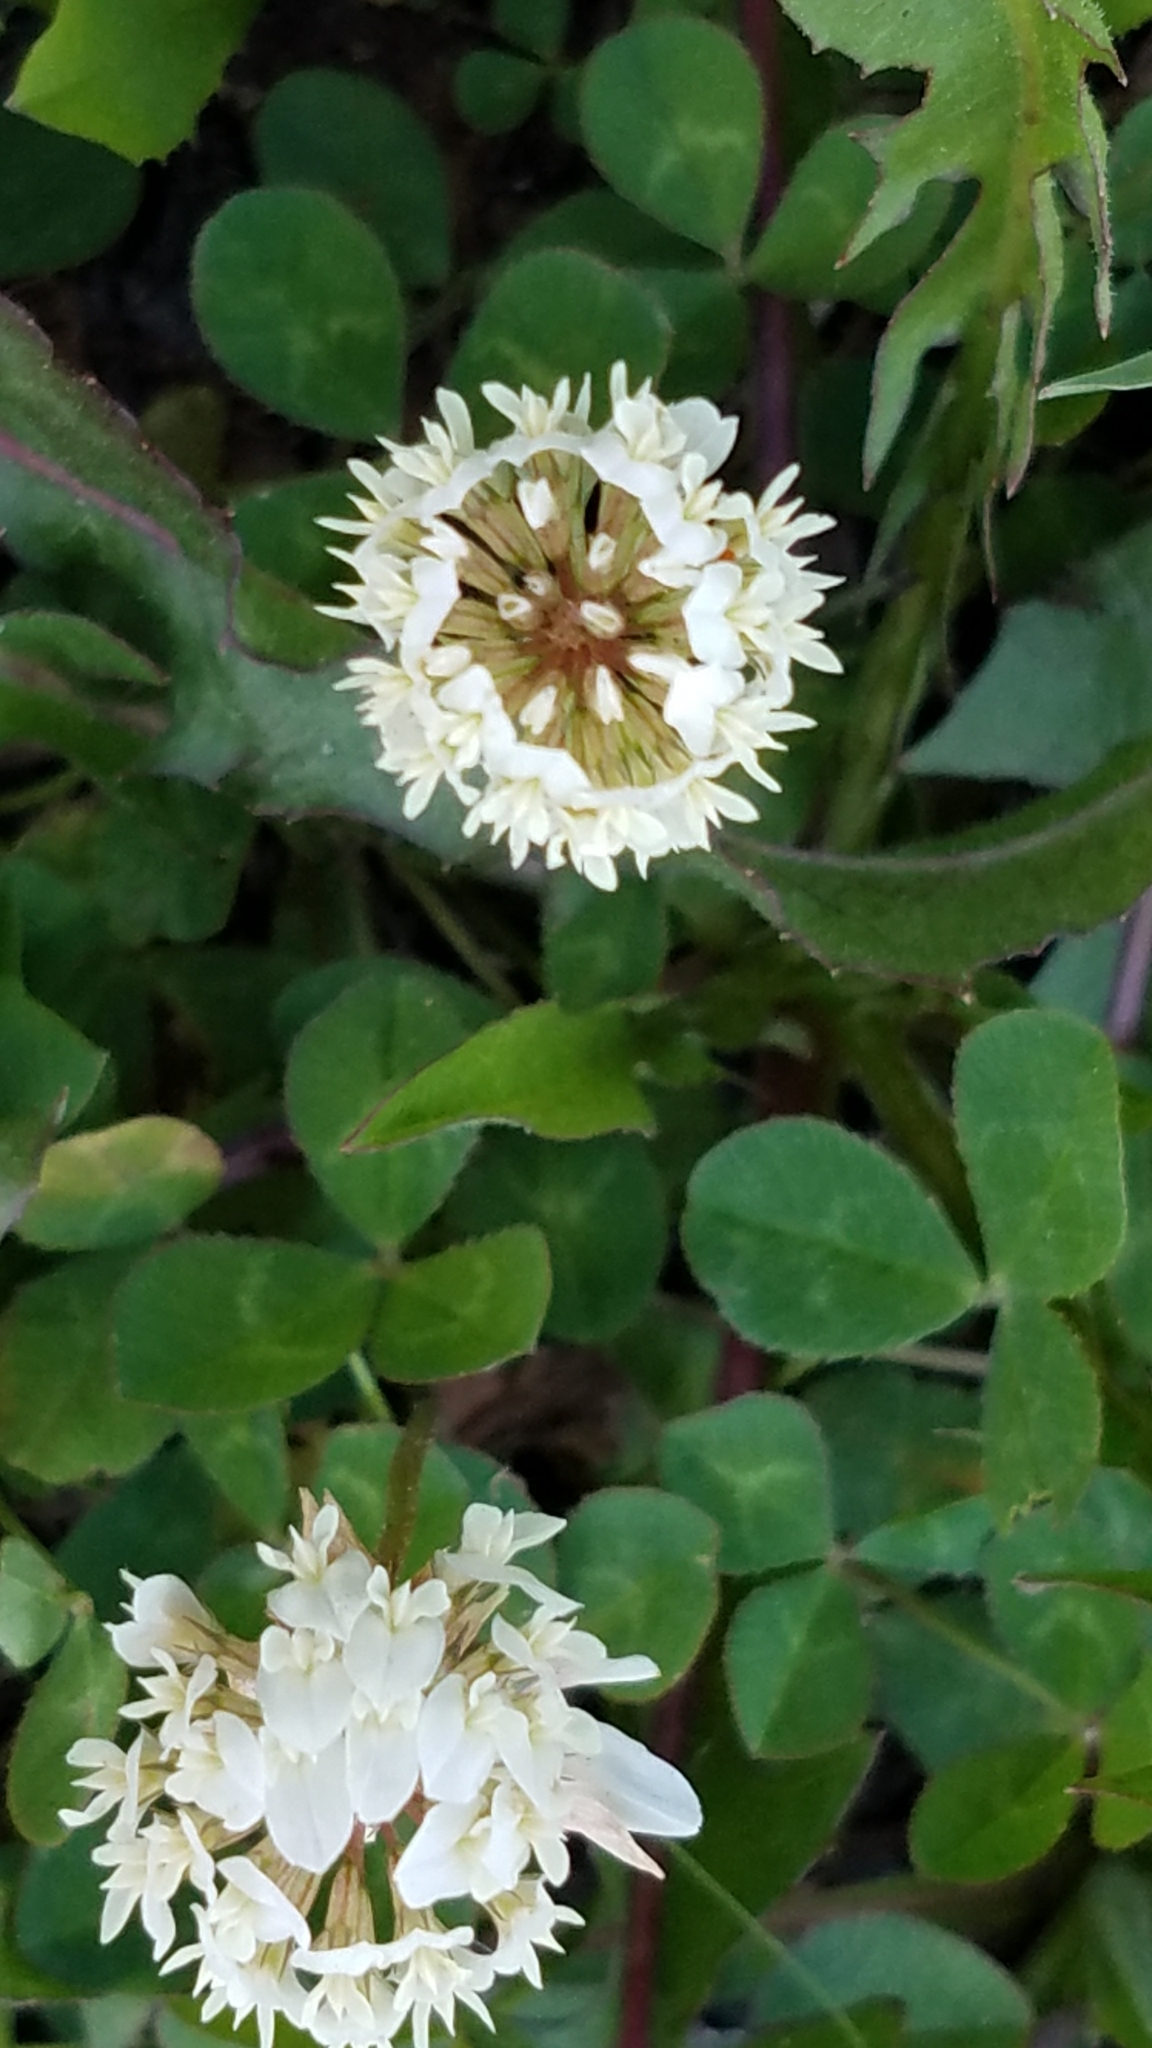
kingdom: Plantae
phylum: Tracheophyta
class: Magnoliopsida
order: Fabales
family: Fabaceae
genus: Trifolium
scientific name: Trifolium repens
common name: White clover
